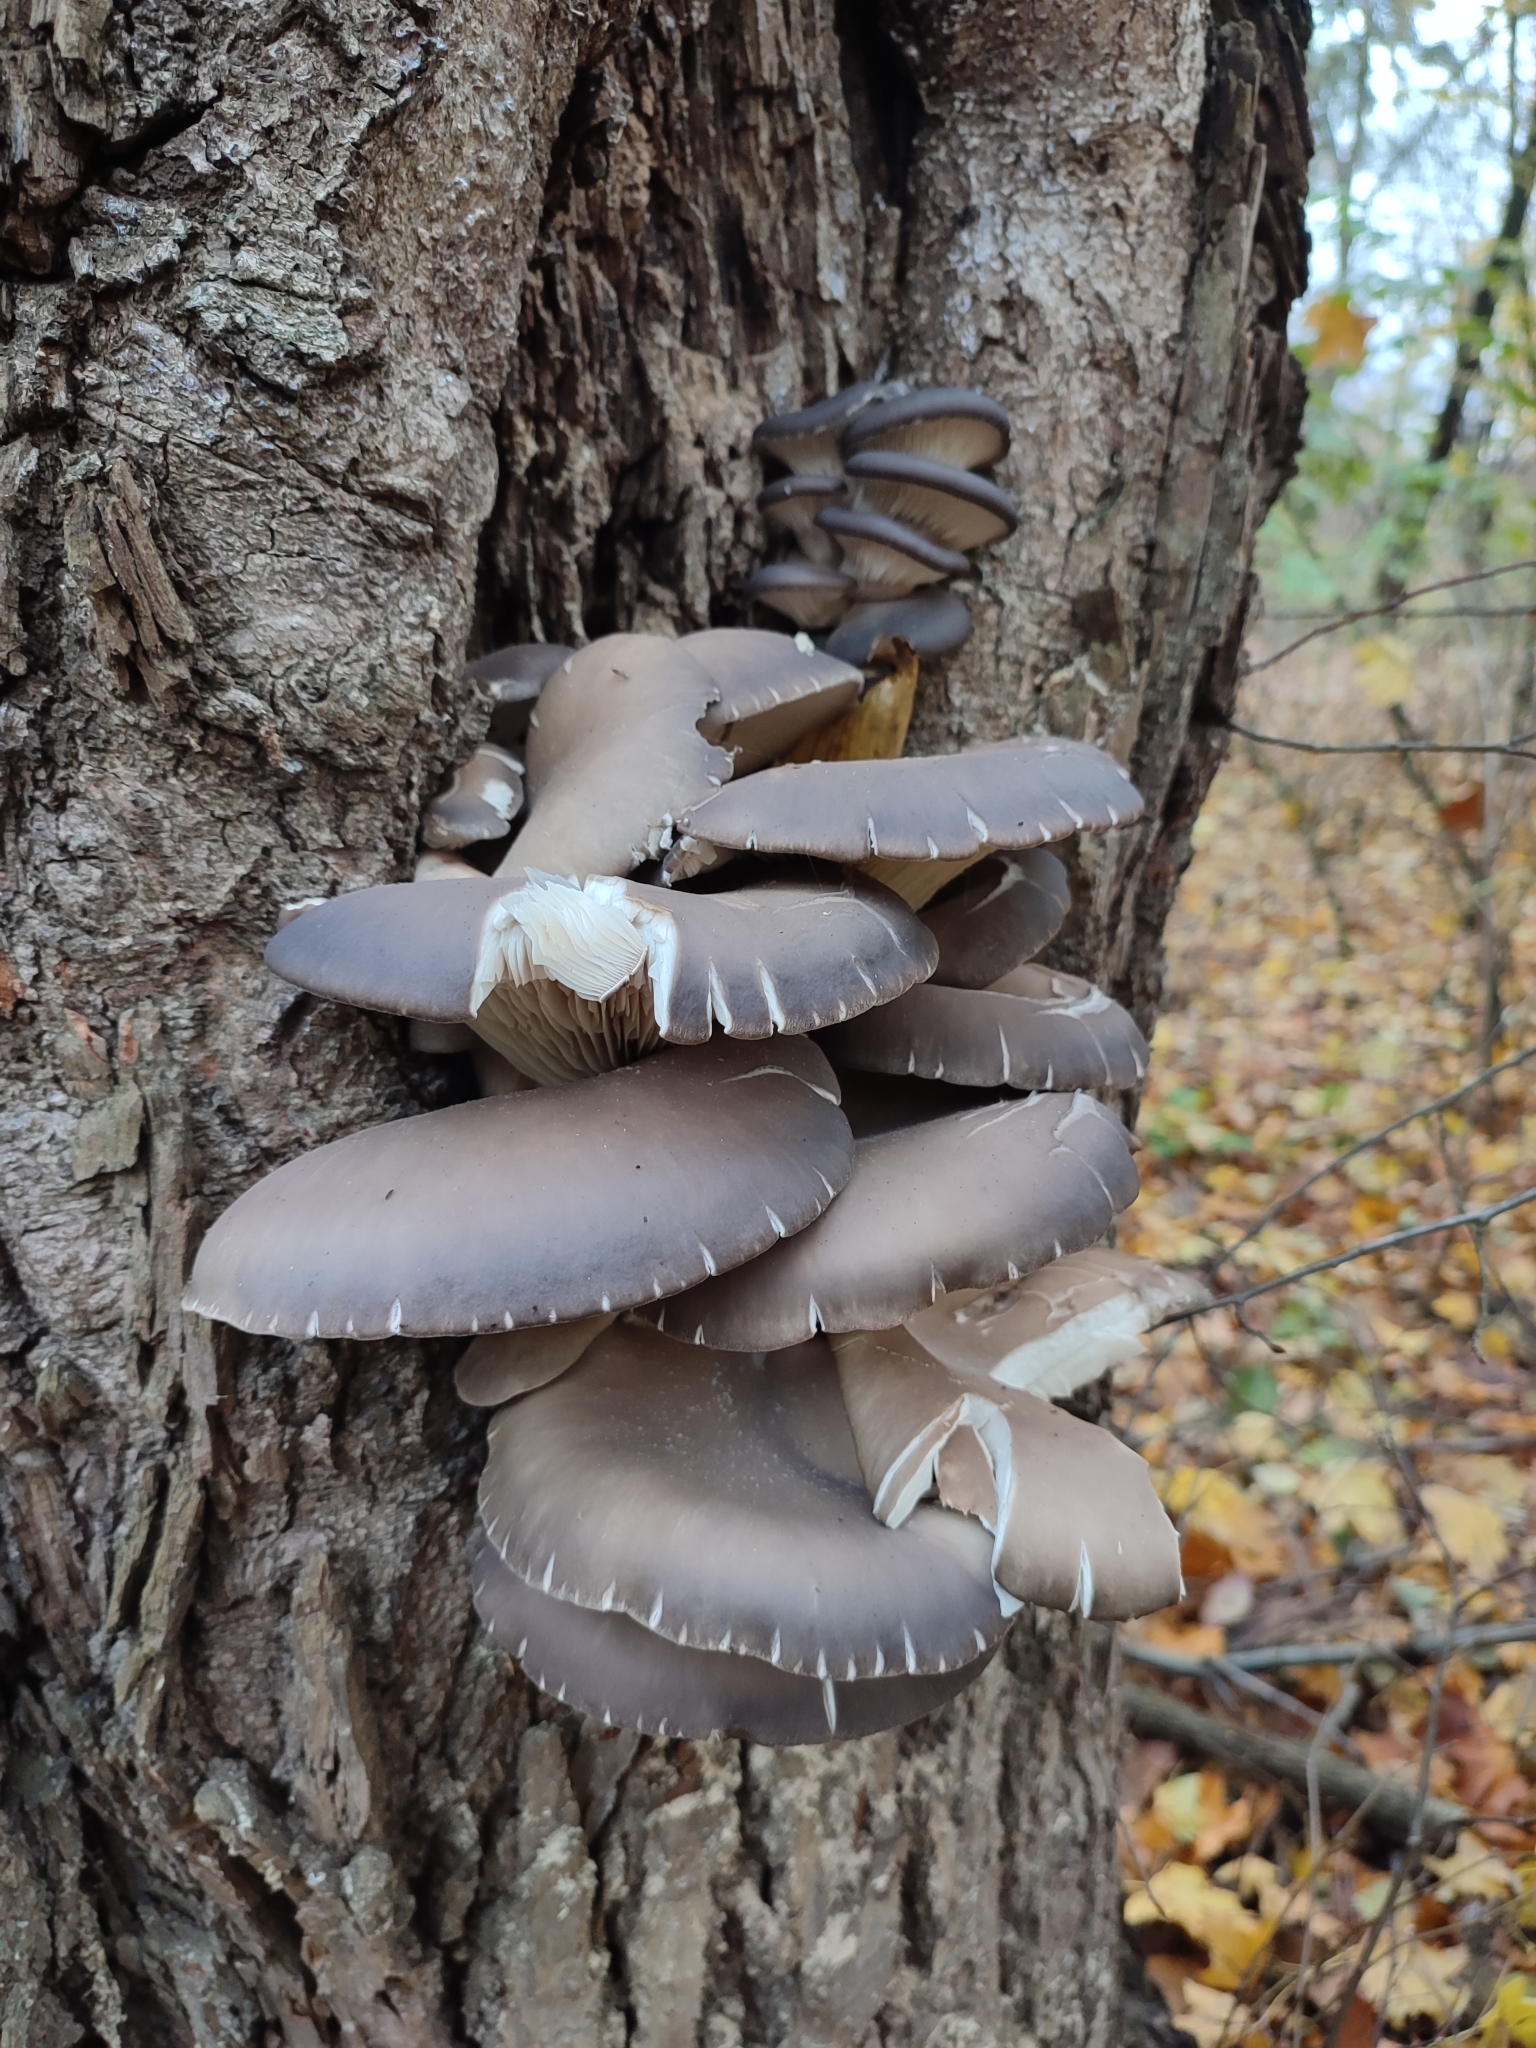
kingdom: Fungi
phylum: Basidiomycota
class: Agaricomycetes
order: Agaricales
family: Pleurotaceae
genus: Pleurotus
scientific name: Pleurotus ostreatus
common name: Oyster mushroom
